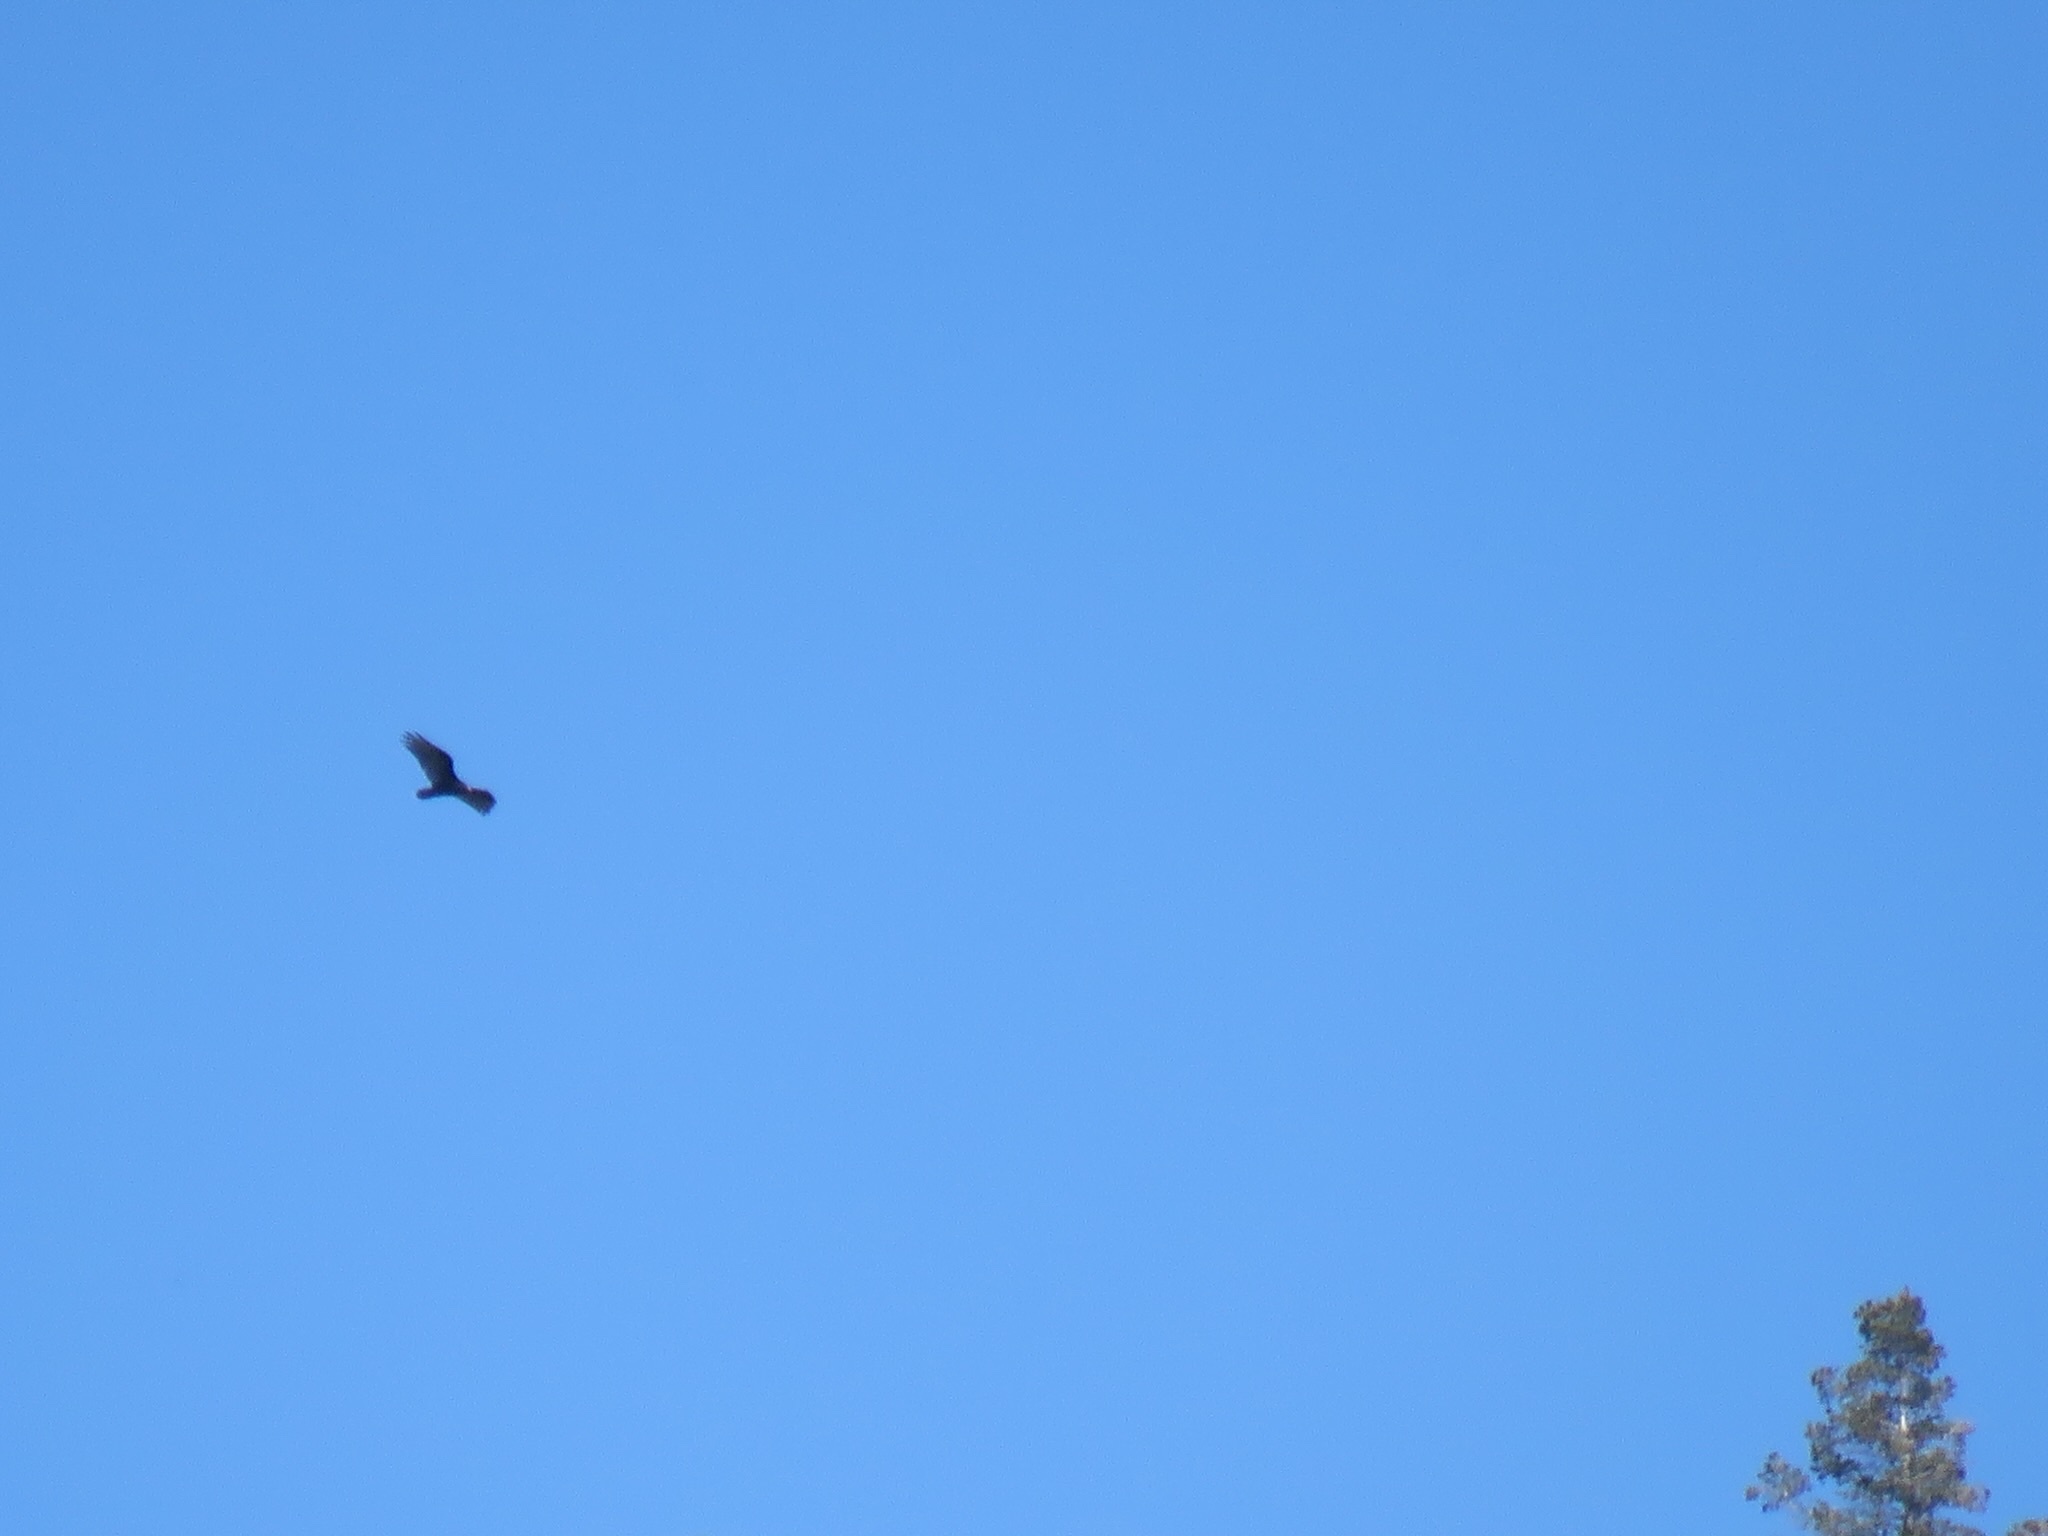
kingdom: Animalia
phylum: Chordata
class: Aves
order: Accipitriformes
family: Cathartidae
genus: Cathartes
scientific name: Cathartes aura
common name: Turkey vulture
